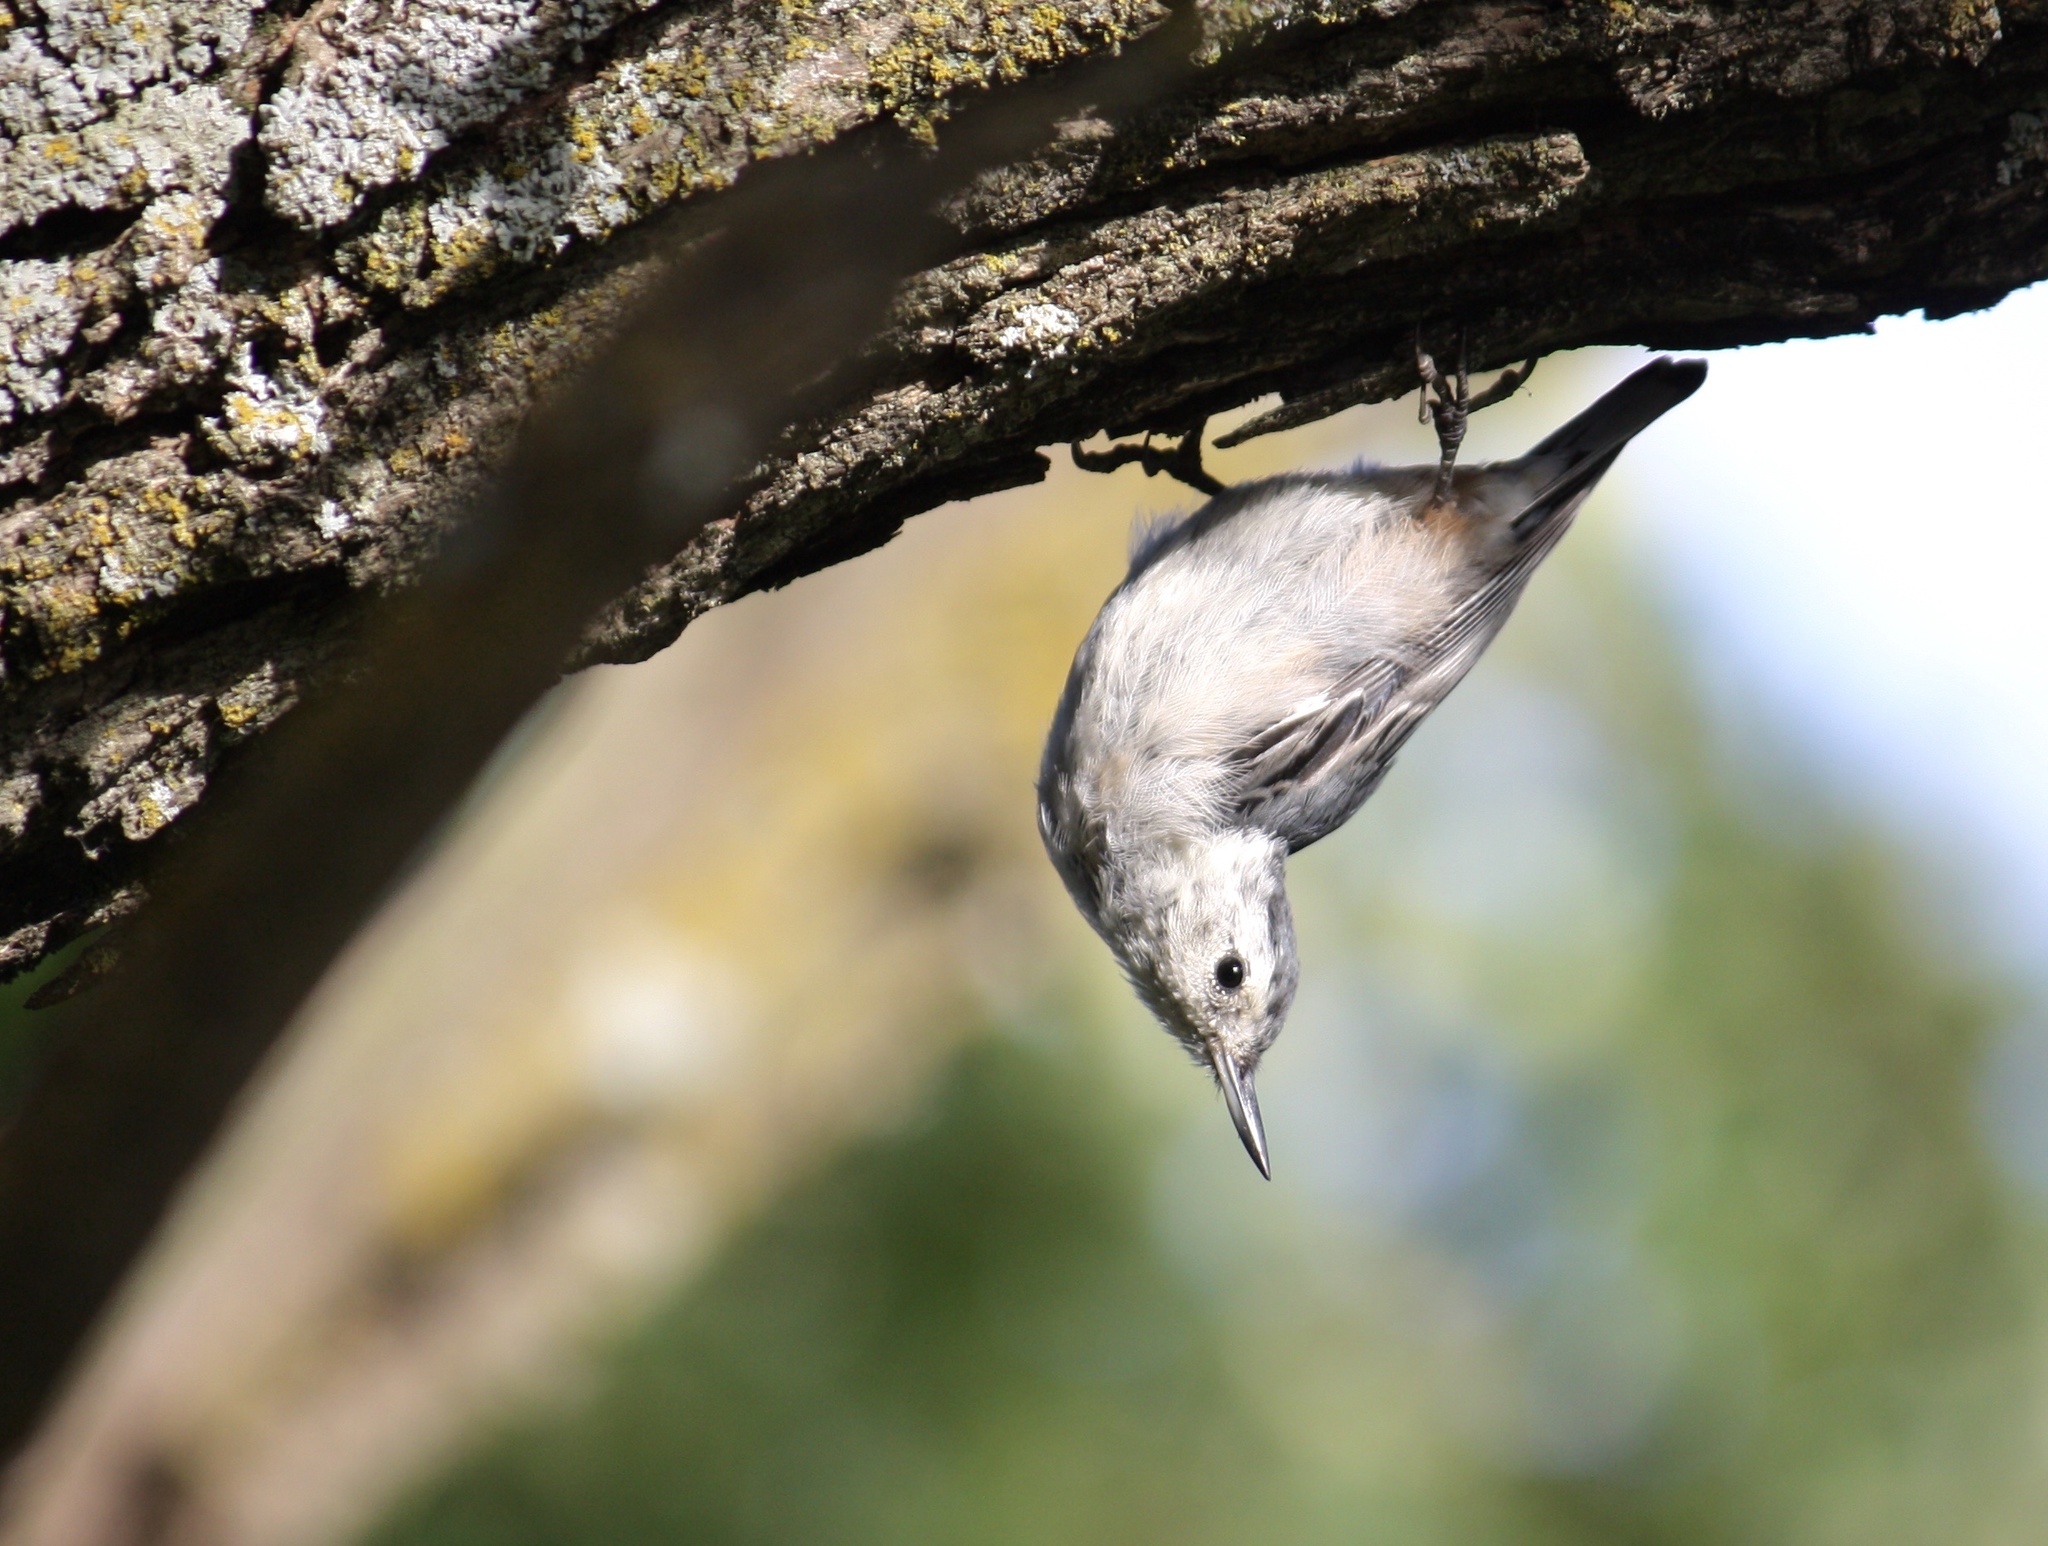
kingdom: Animalia
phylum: Chordata
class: Aves
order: Passeriformes
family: Sittidae
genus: Sitta
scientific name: Sitta carolinensis
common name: White-breasted nuthatch
